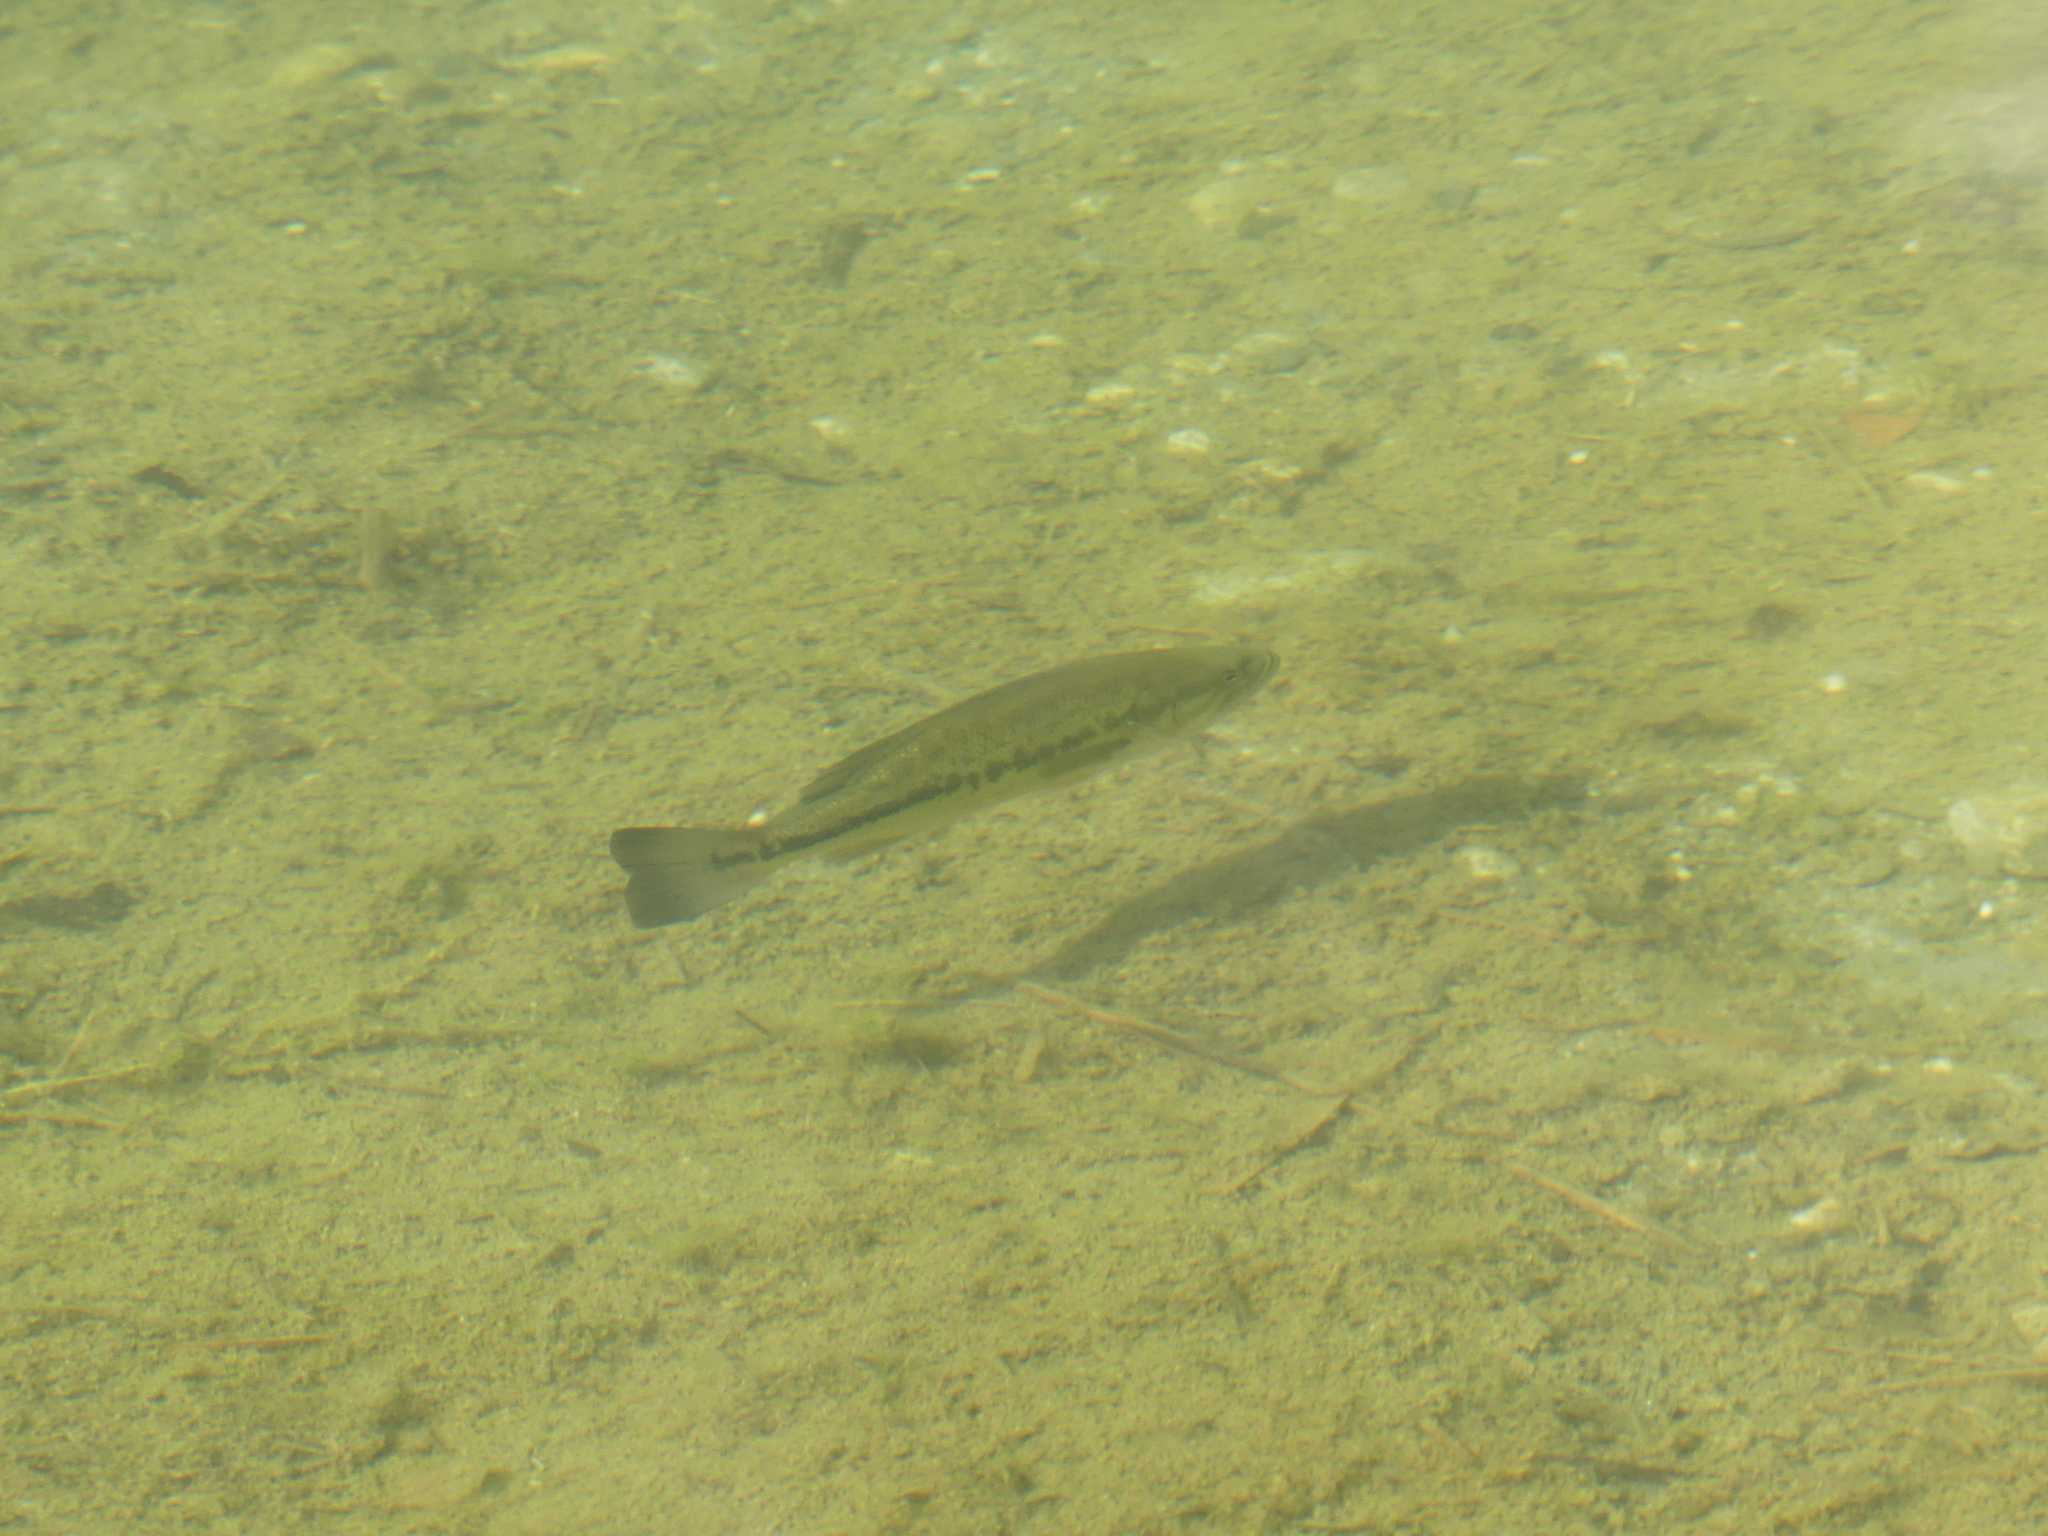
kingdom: Animalia
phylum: Chordata
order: Perciformes
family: Centrarchidae
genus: Micropterus
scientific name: Micropterus
